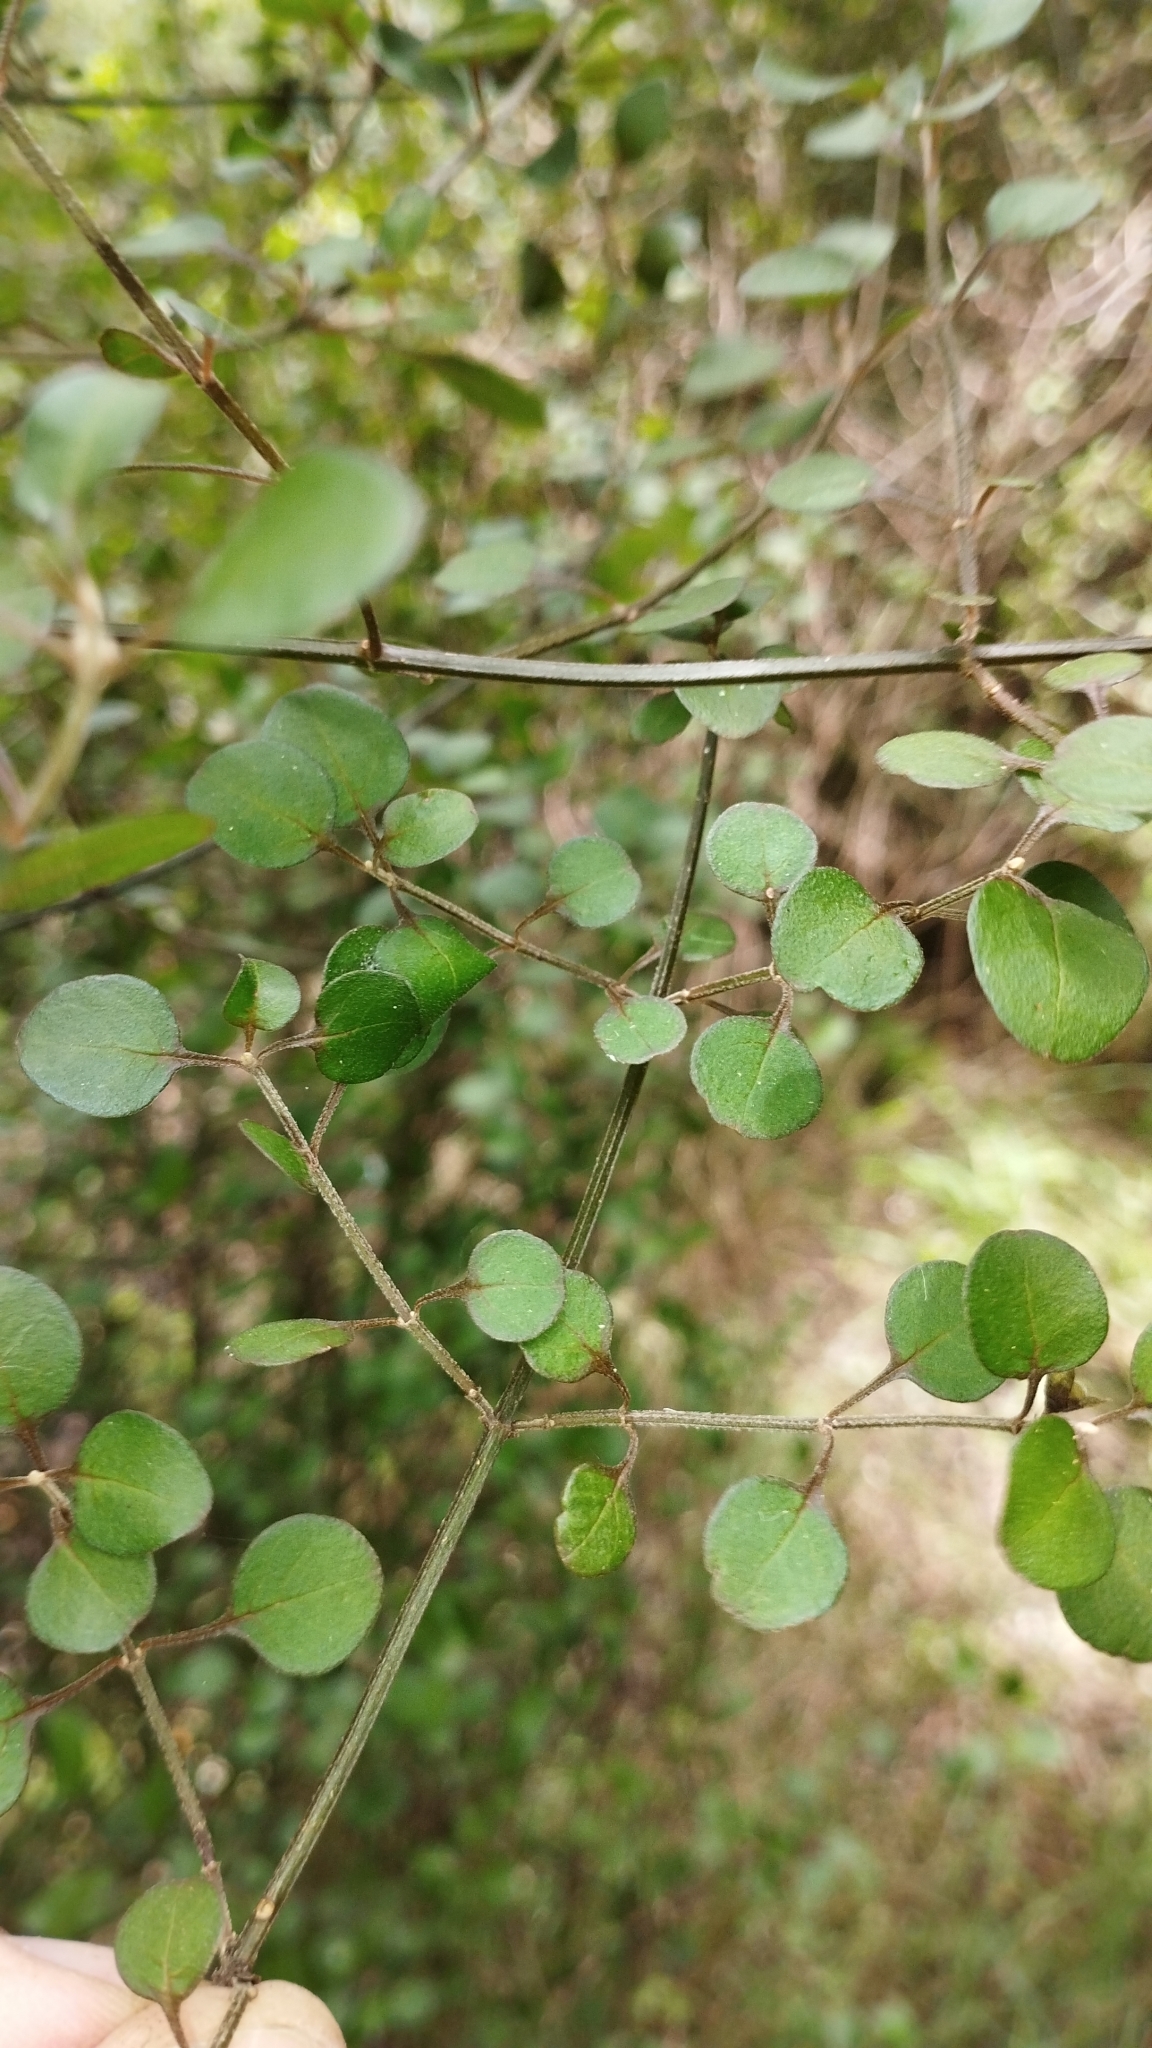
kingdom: Plantae
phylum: Tracheophyta
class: Magnoliopsida
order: Lamiales
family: Lamiaceae
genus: Teucrium
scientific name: Teucrium parvifolium
